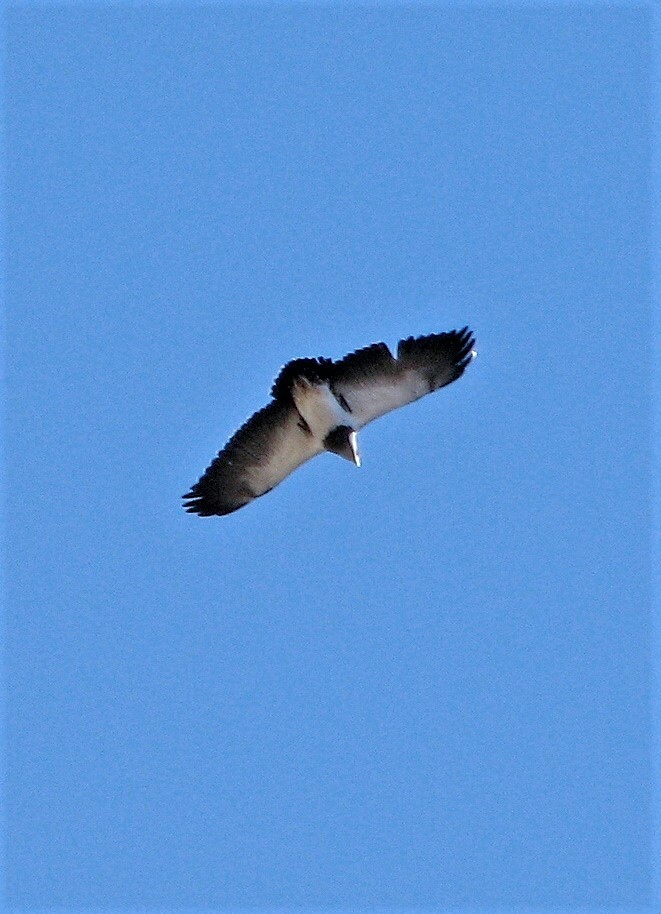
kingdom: Animalia
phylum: Chordata
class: Aves
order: Accipitriformes
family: Accipitridae
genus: Geranoaetus
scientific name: Geranoaetus melanoleucus
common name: Black-chested buzzard-eagle
